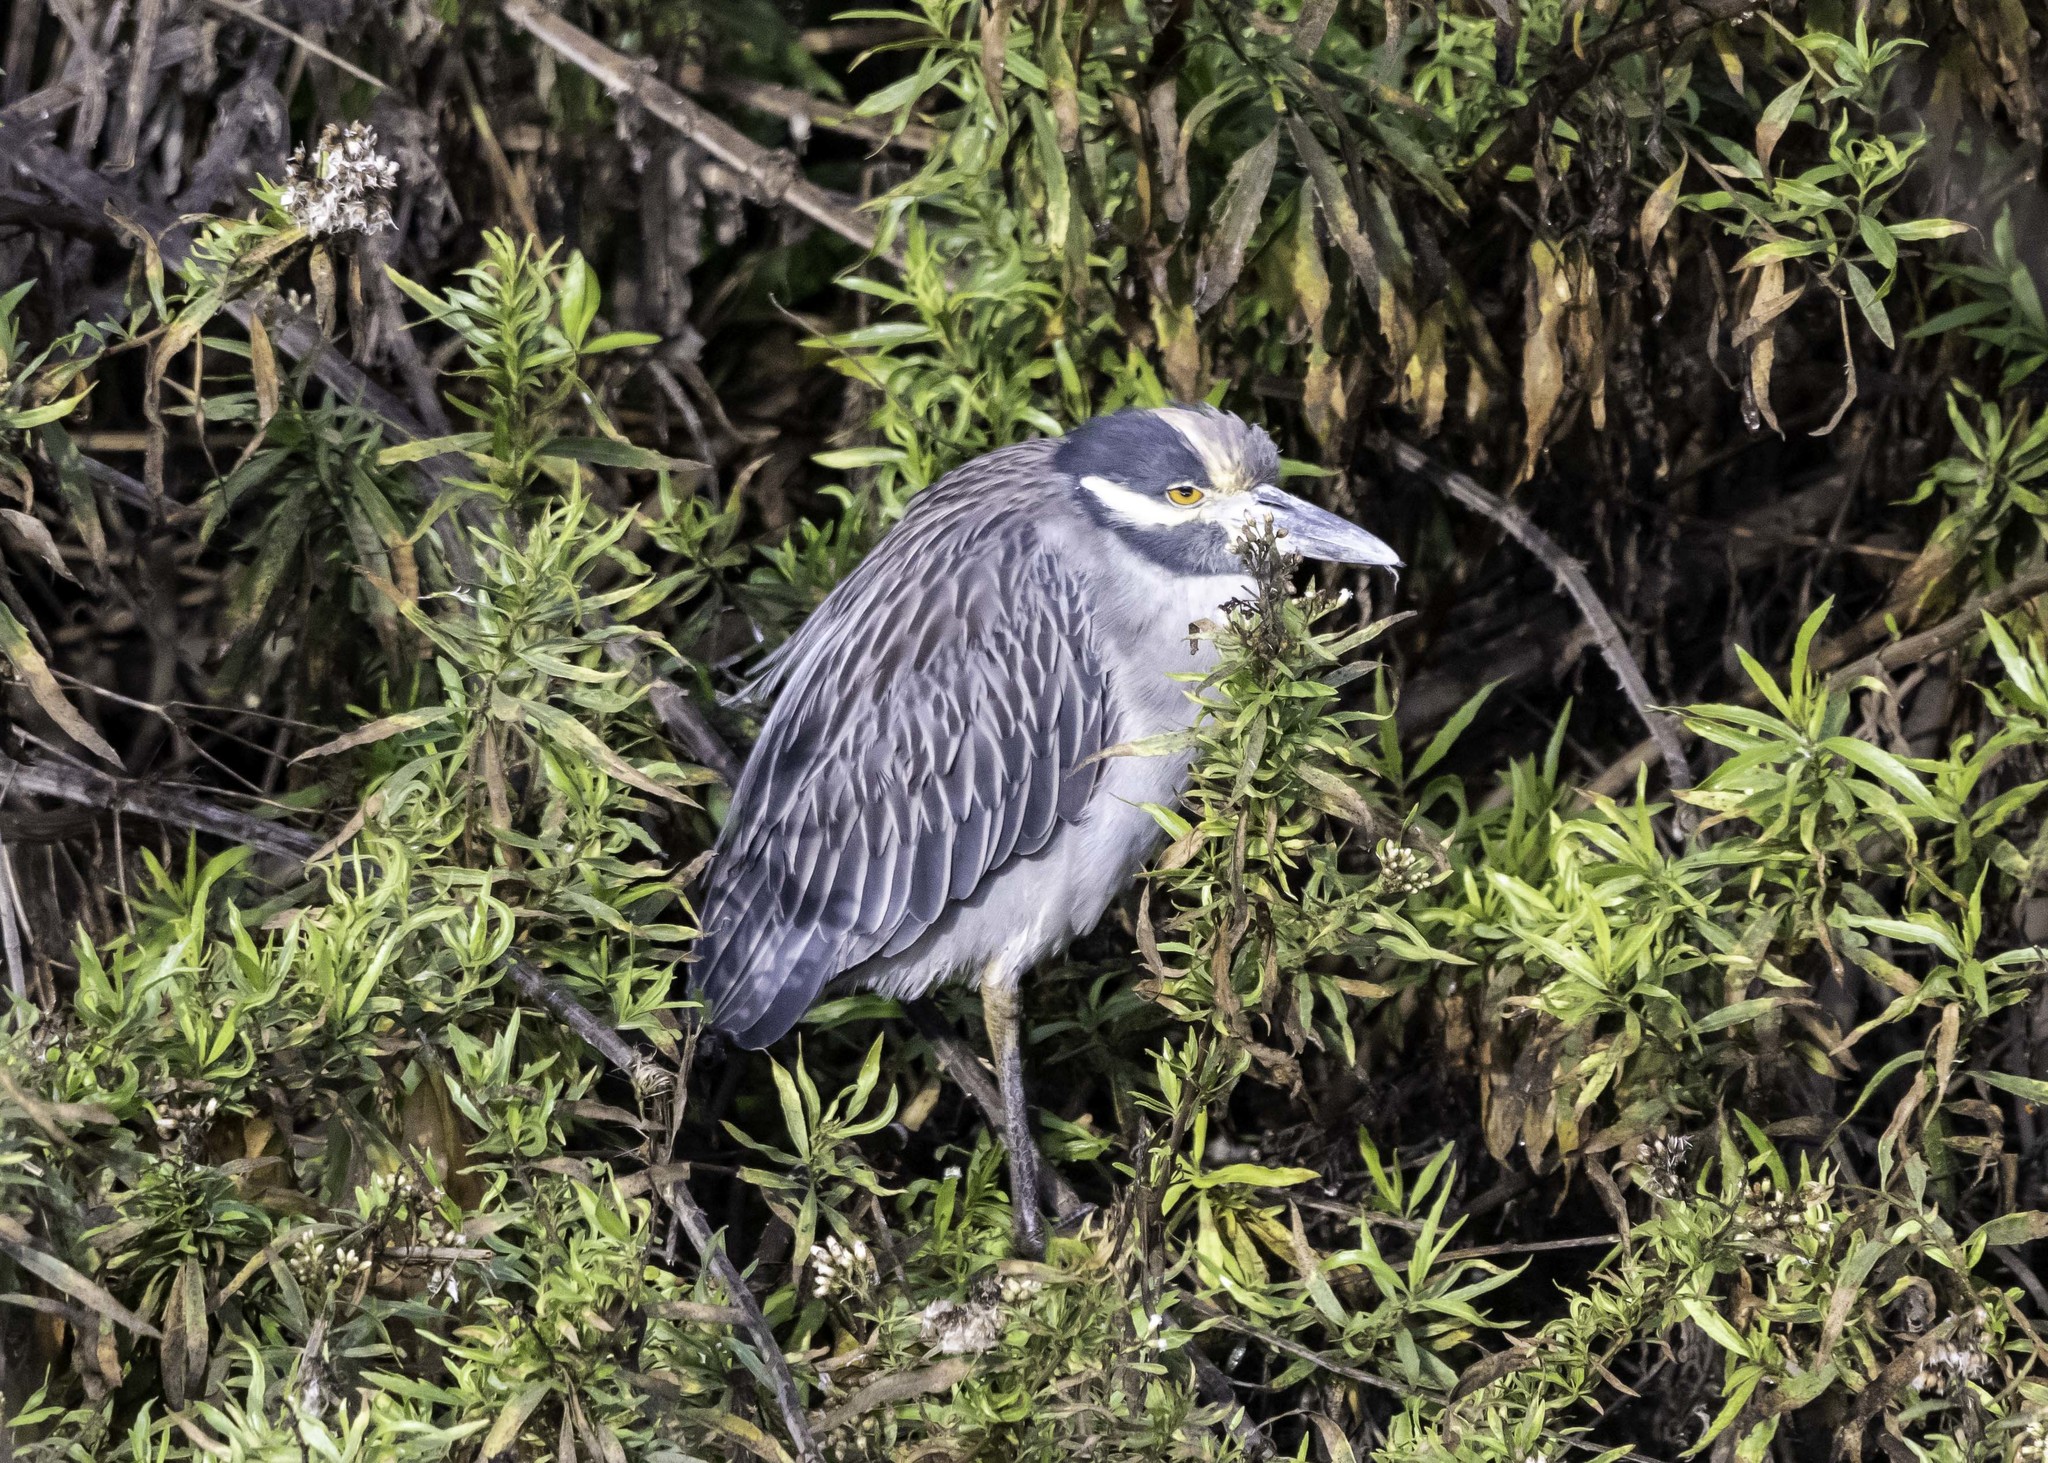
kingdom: Animalia
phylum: Chordata
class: Aves
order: Pelecaniformes
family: Ardeidae
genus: Nyctanassa
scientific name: Nyctanassa violacea
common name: Yellow-crowned night heron
